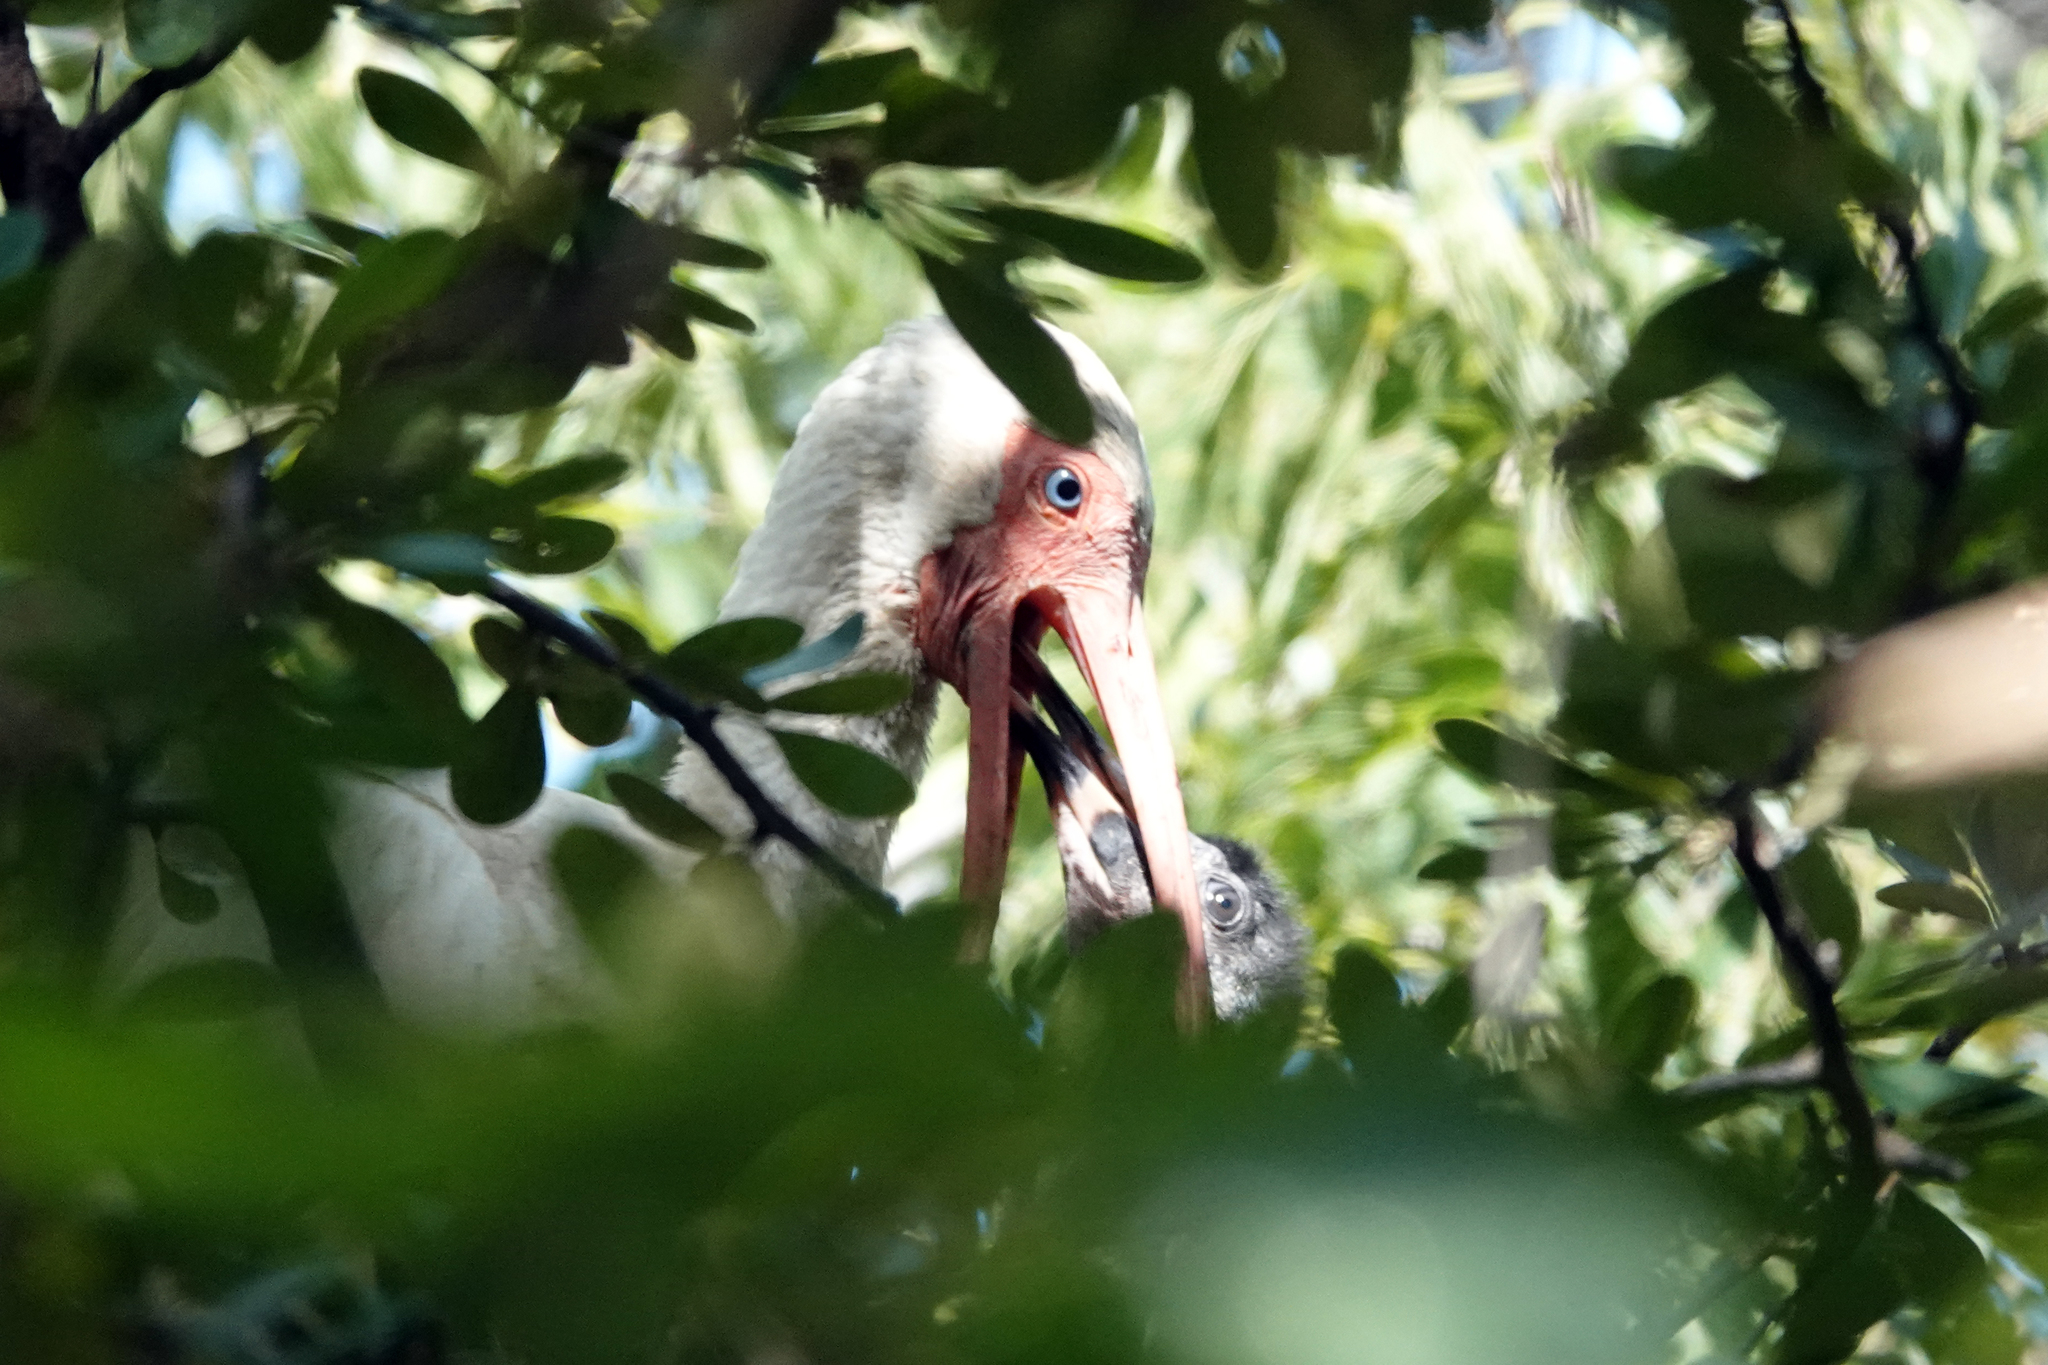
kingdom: Animalia
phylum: Chordata
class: Aves
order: Pelecaniformes
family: Threskiornithidae
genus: Eudocimus
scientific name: Eudocimus albus
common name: White ibis
